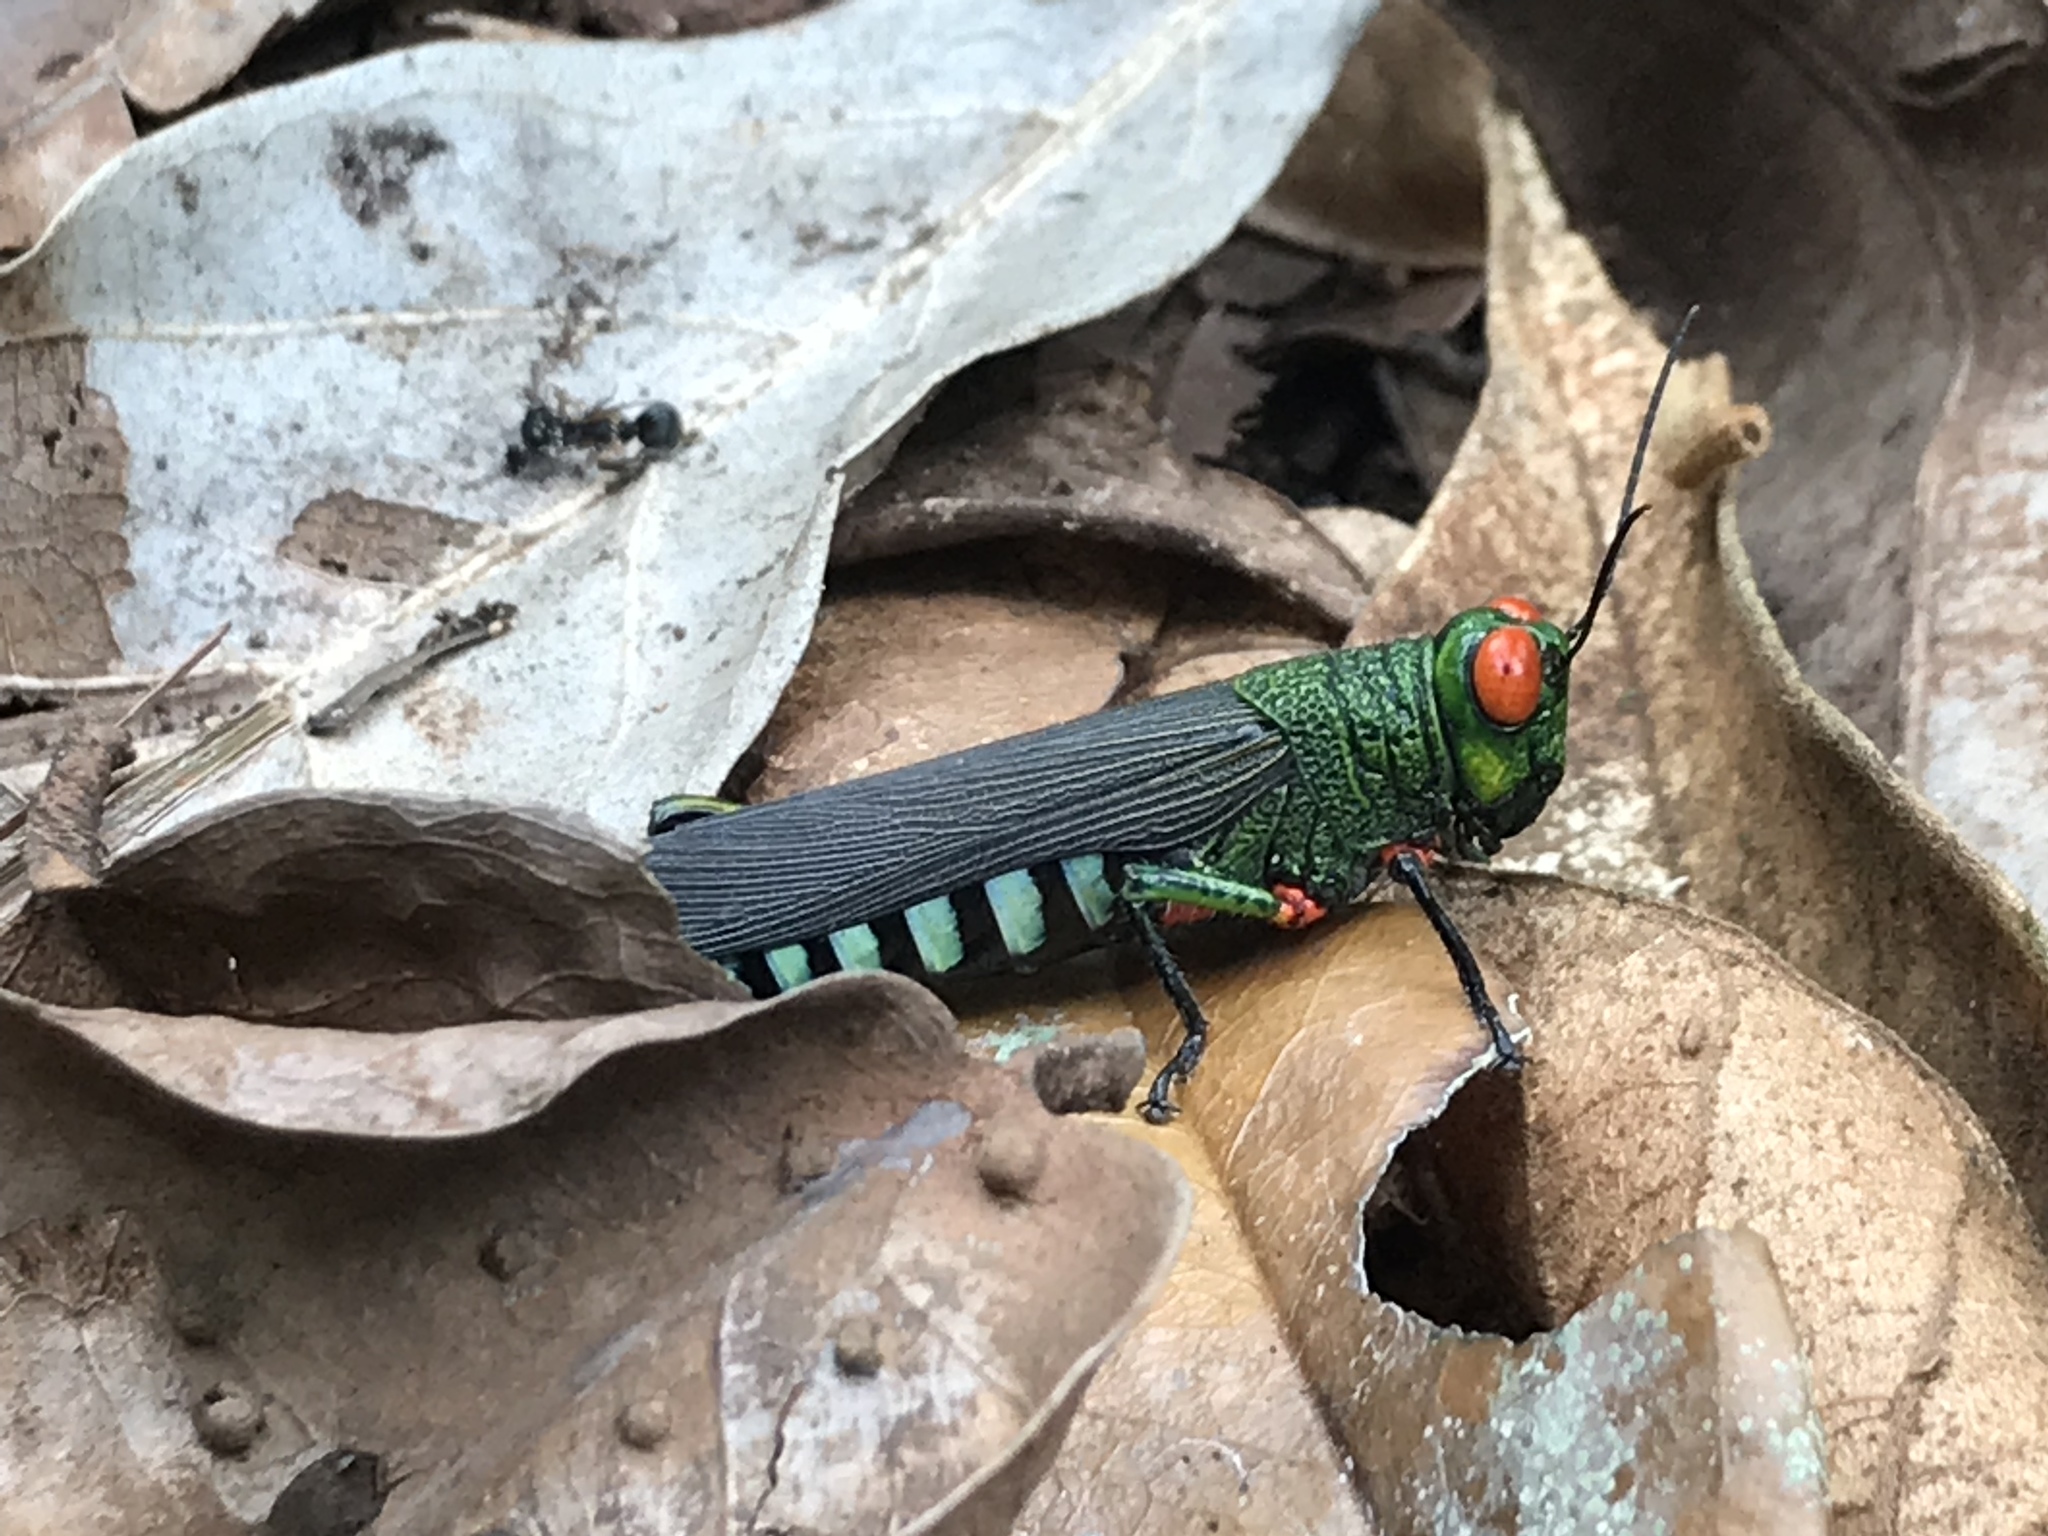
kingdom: Animalia
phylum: Arthropoda
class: Insecta
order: Orthoptera
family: Acrididae
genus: Coscineuta
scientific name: Coscineuta coxalis
